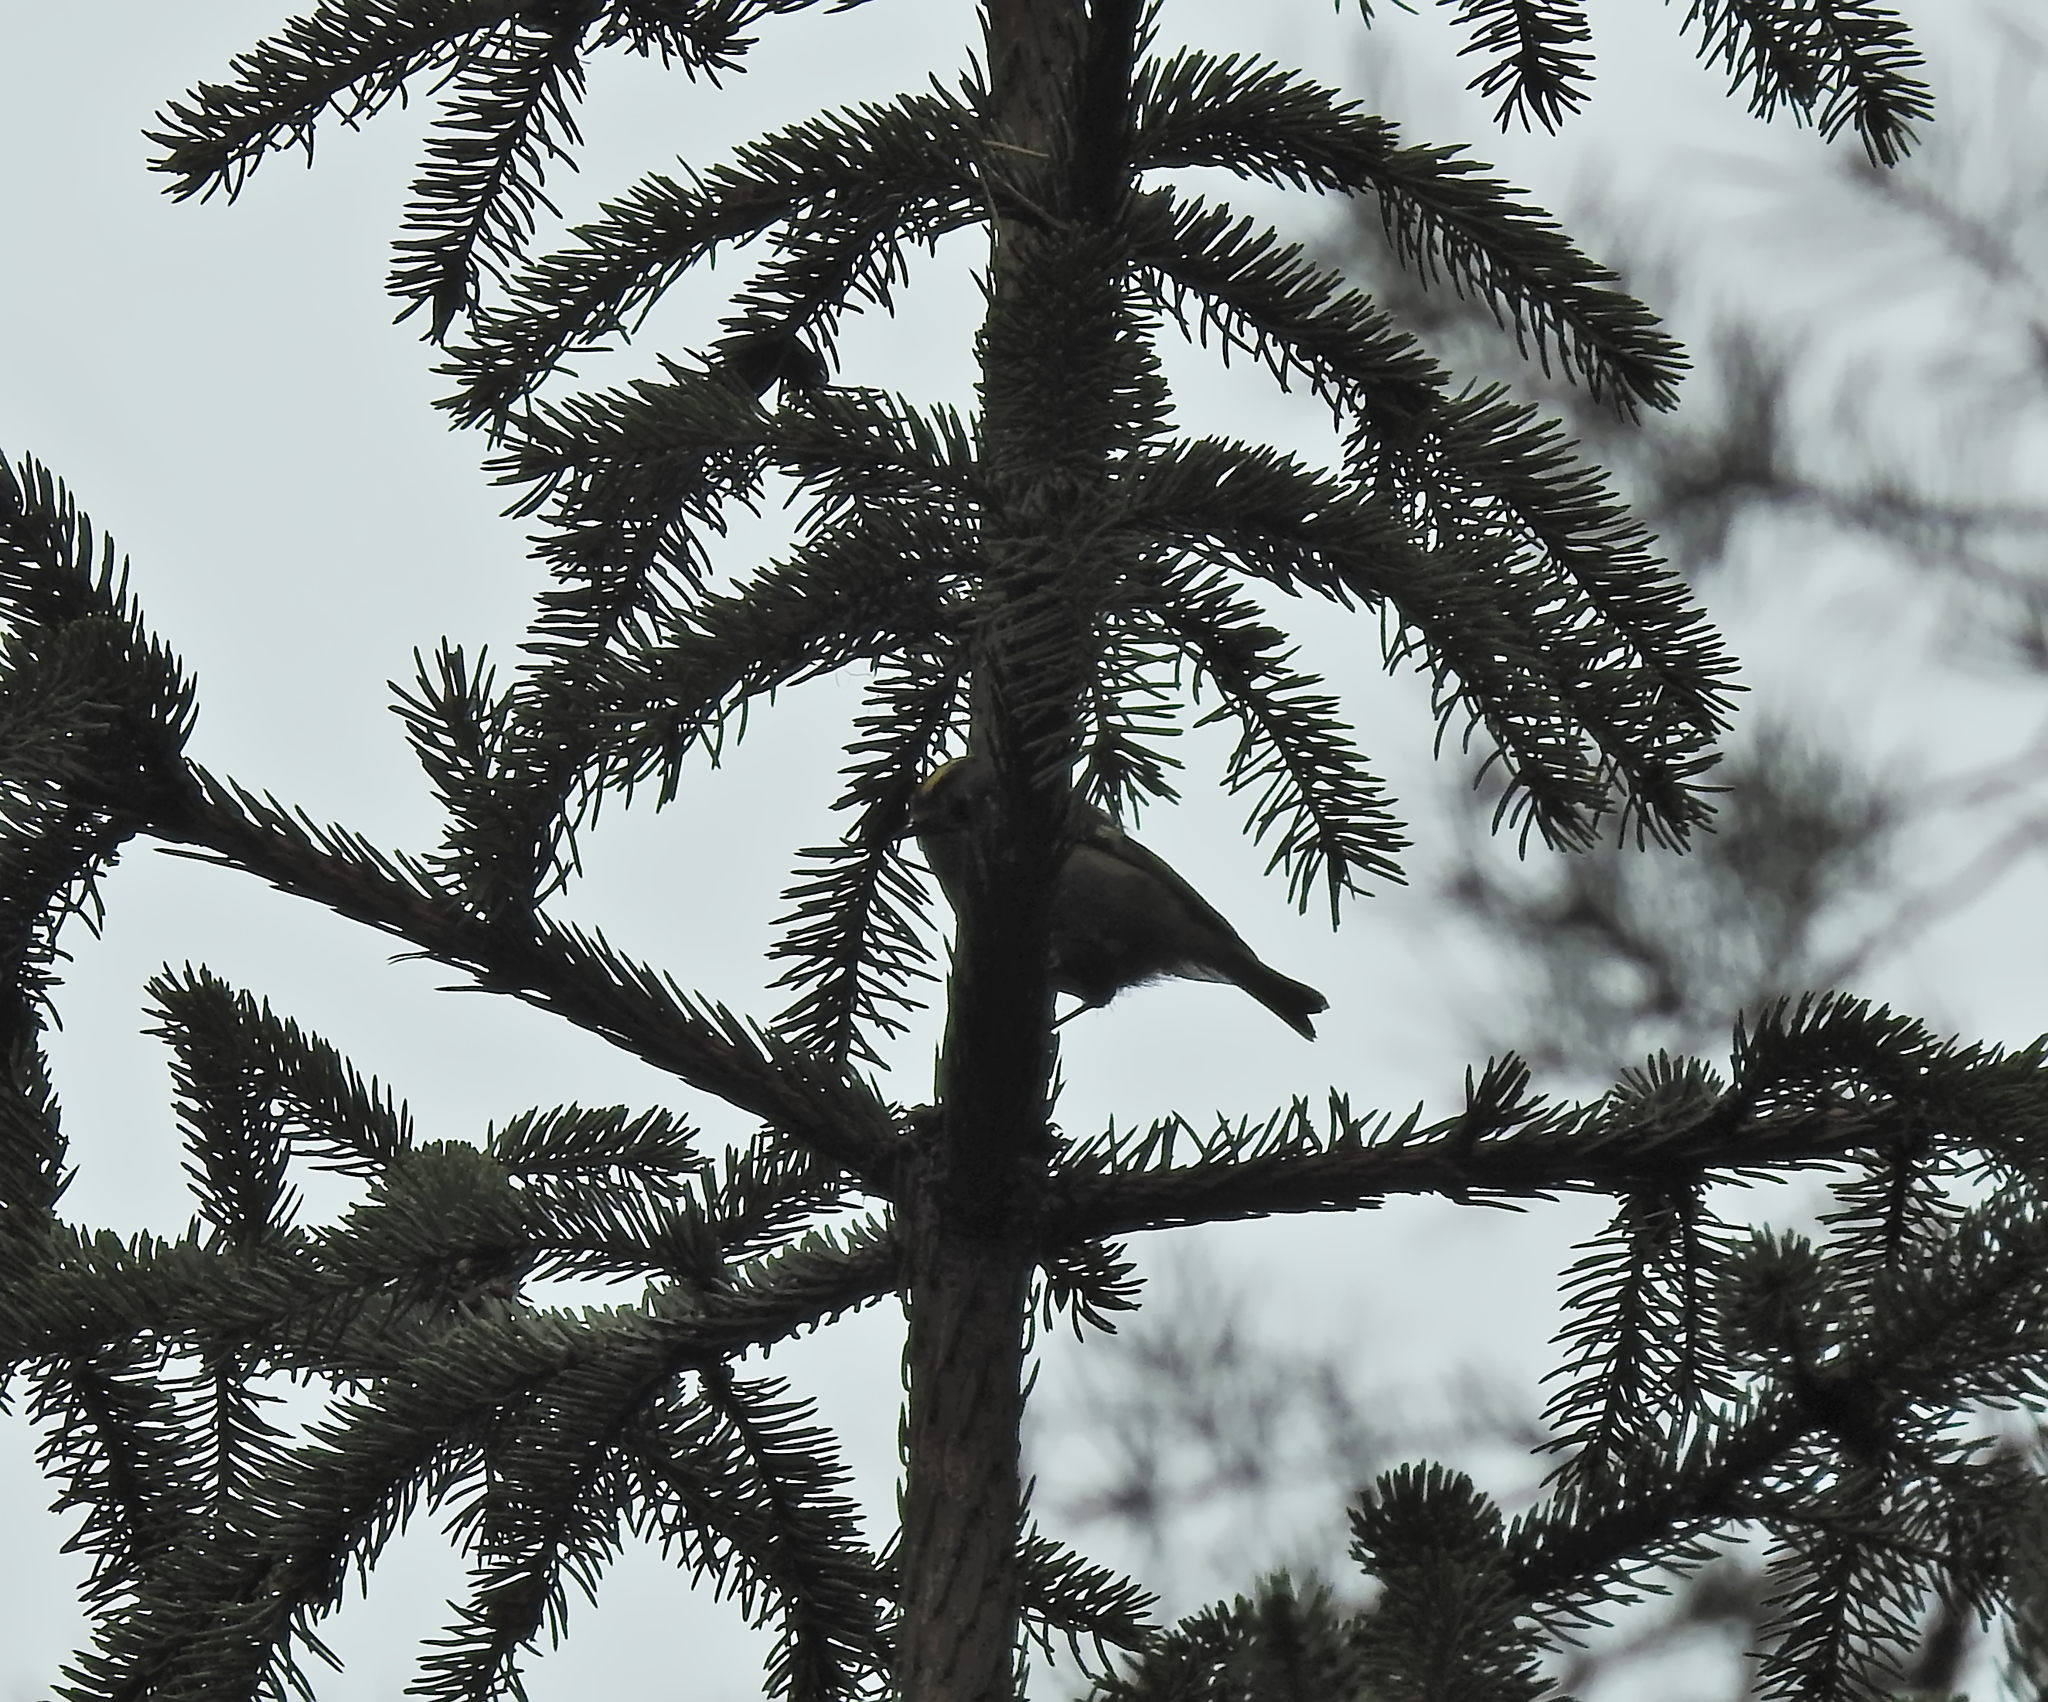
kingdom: Animalia
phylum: Chordata
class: Aves
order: Passeriformes
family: Regulidae
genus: Regulus
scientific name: Regulus regulus
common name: Goldcrest
